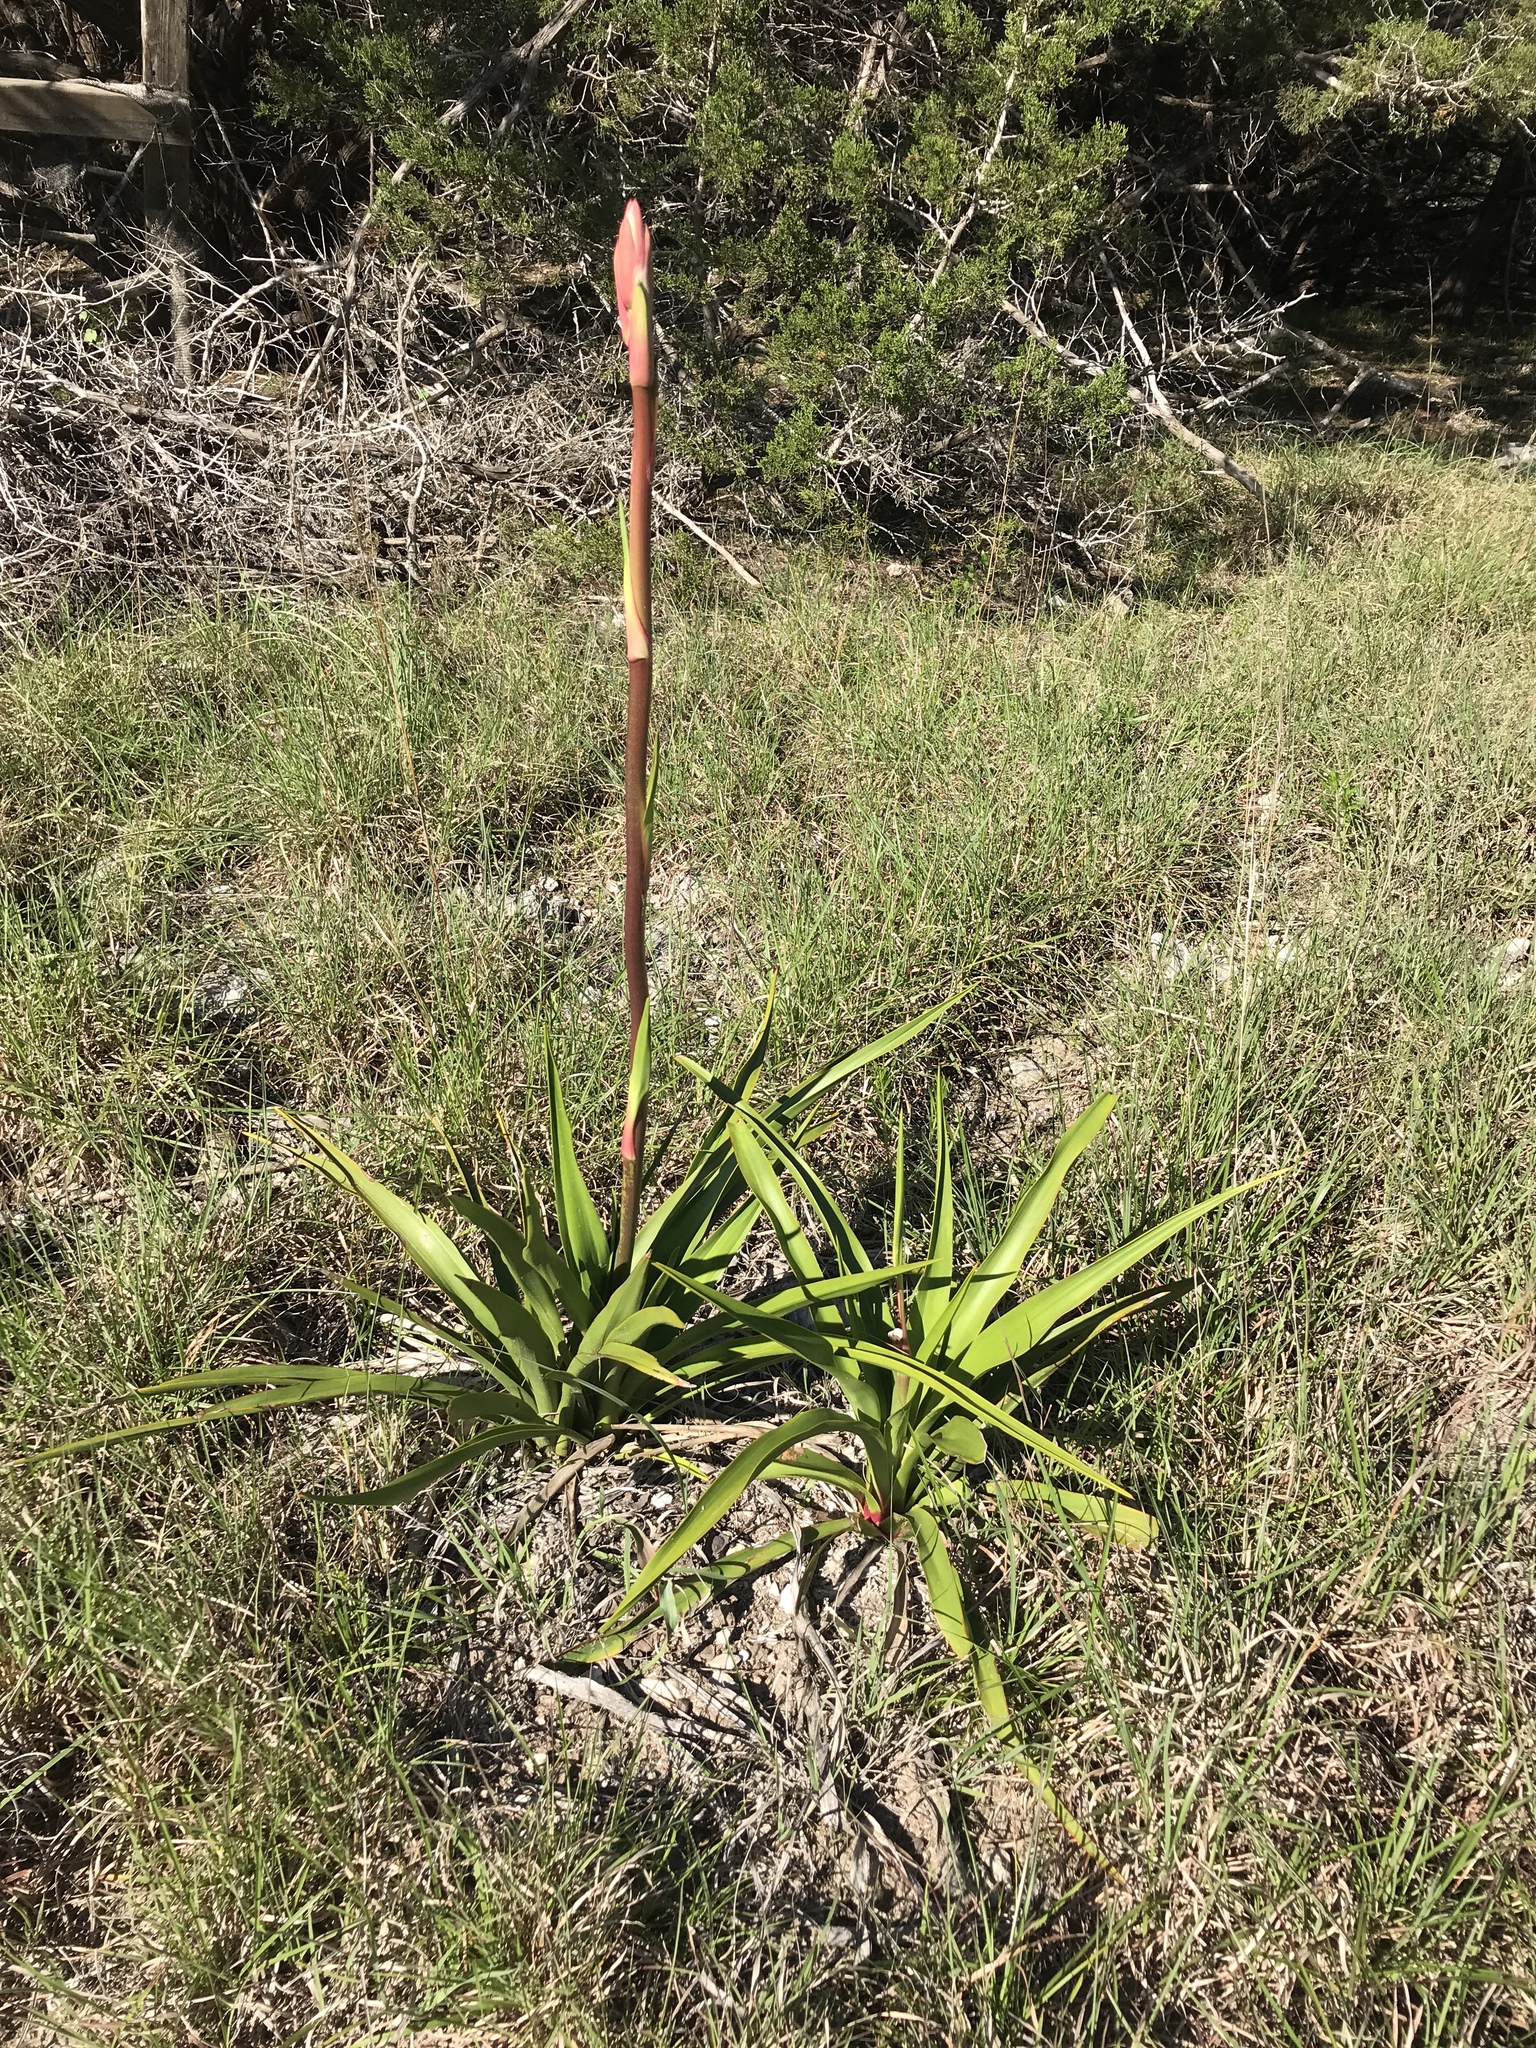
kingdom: Plantae
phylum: Tracheophyta
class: Liliopsida
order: Asparagales
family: Asparagaceae
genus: Yucca
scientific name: Yucca rupicola
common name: Twisted-leaf spanish-dagger
